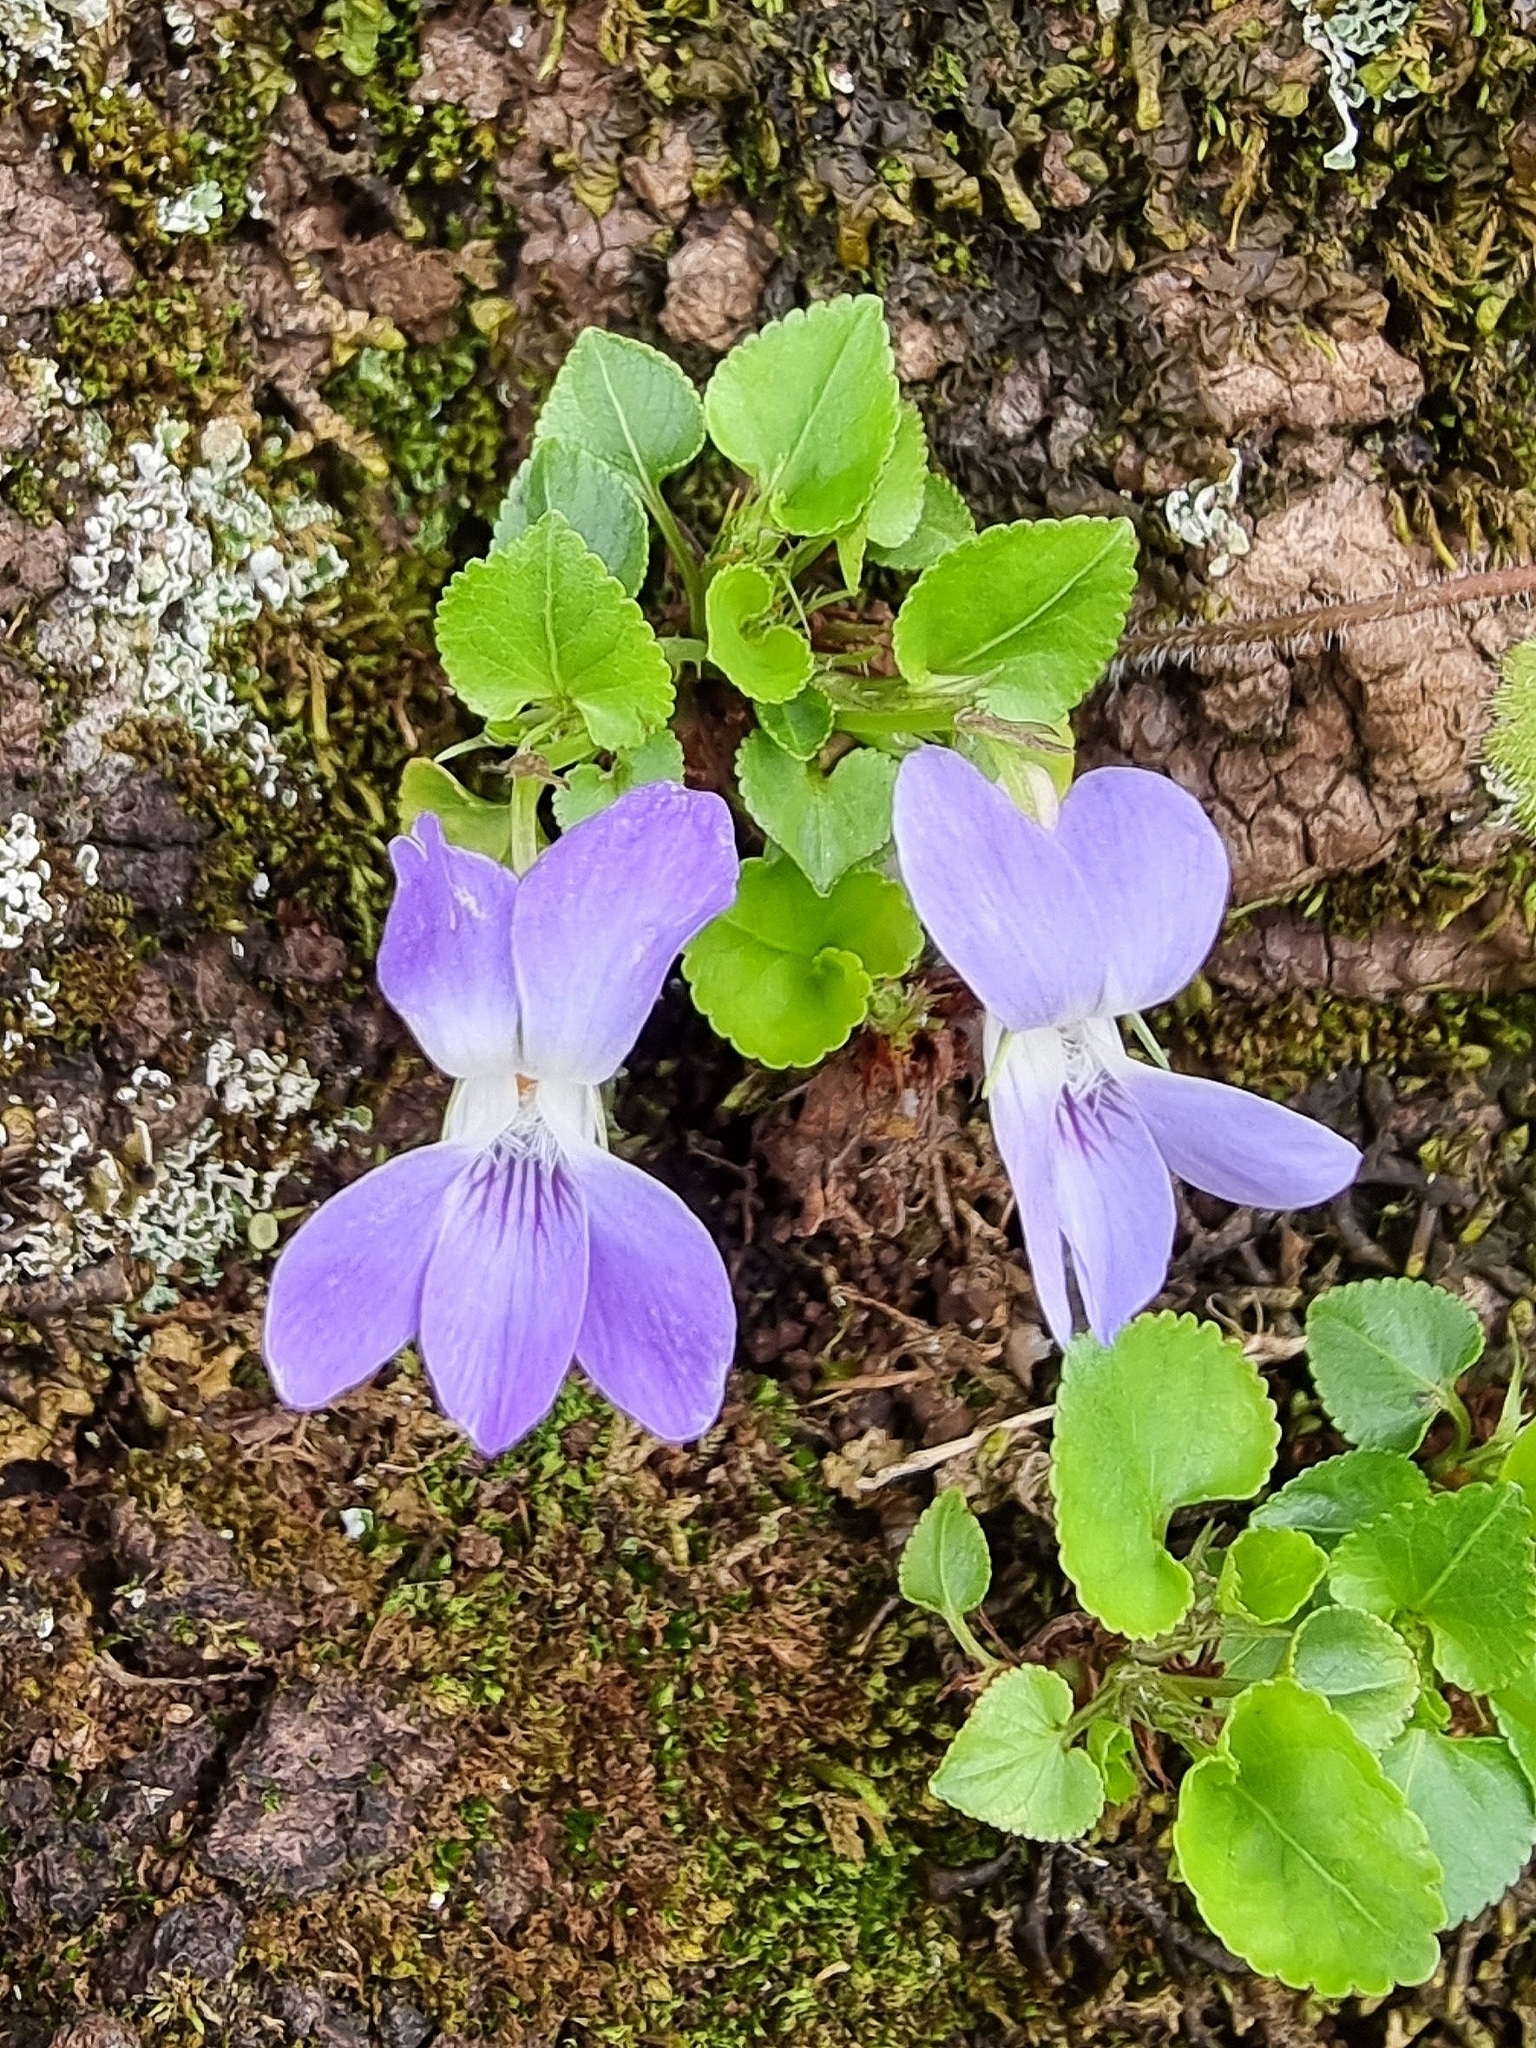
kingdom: Plantae
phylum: Tracheophyta
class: Magnoliopsida
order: Malpighiales
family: Violaceae
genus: Viola
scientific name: Viola riviniana
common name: Common dog-violet
